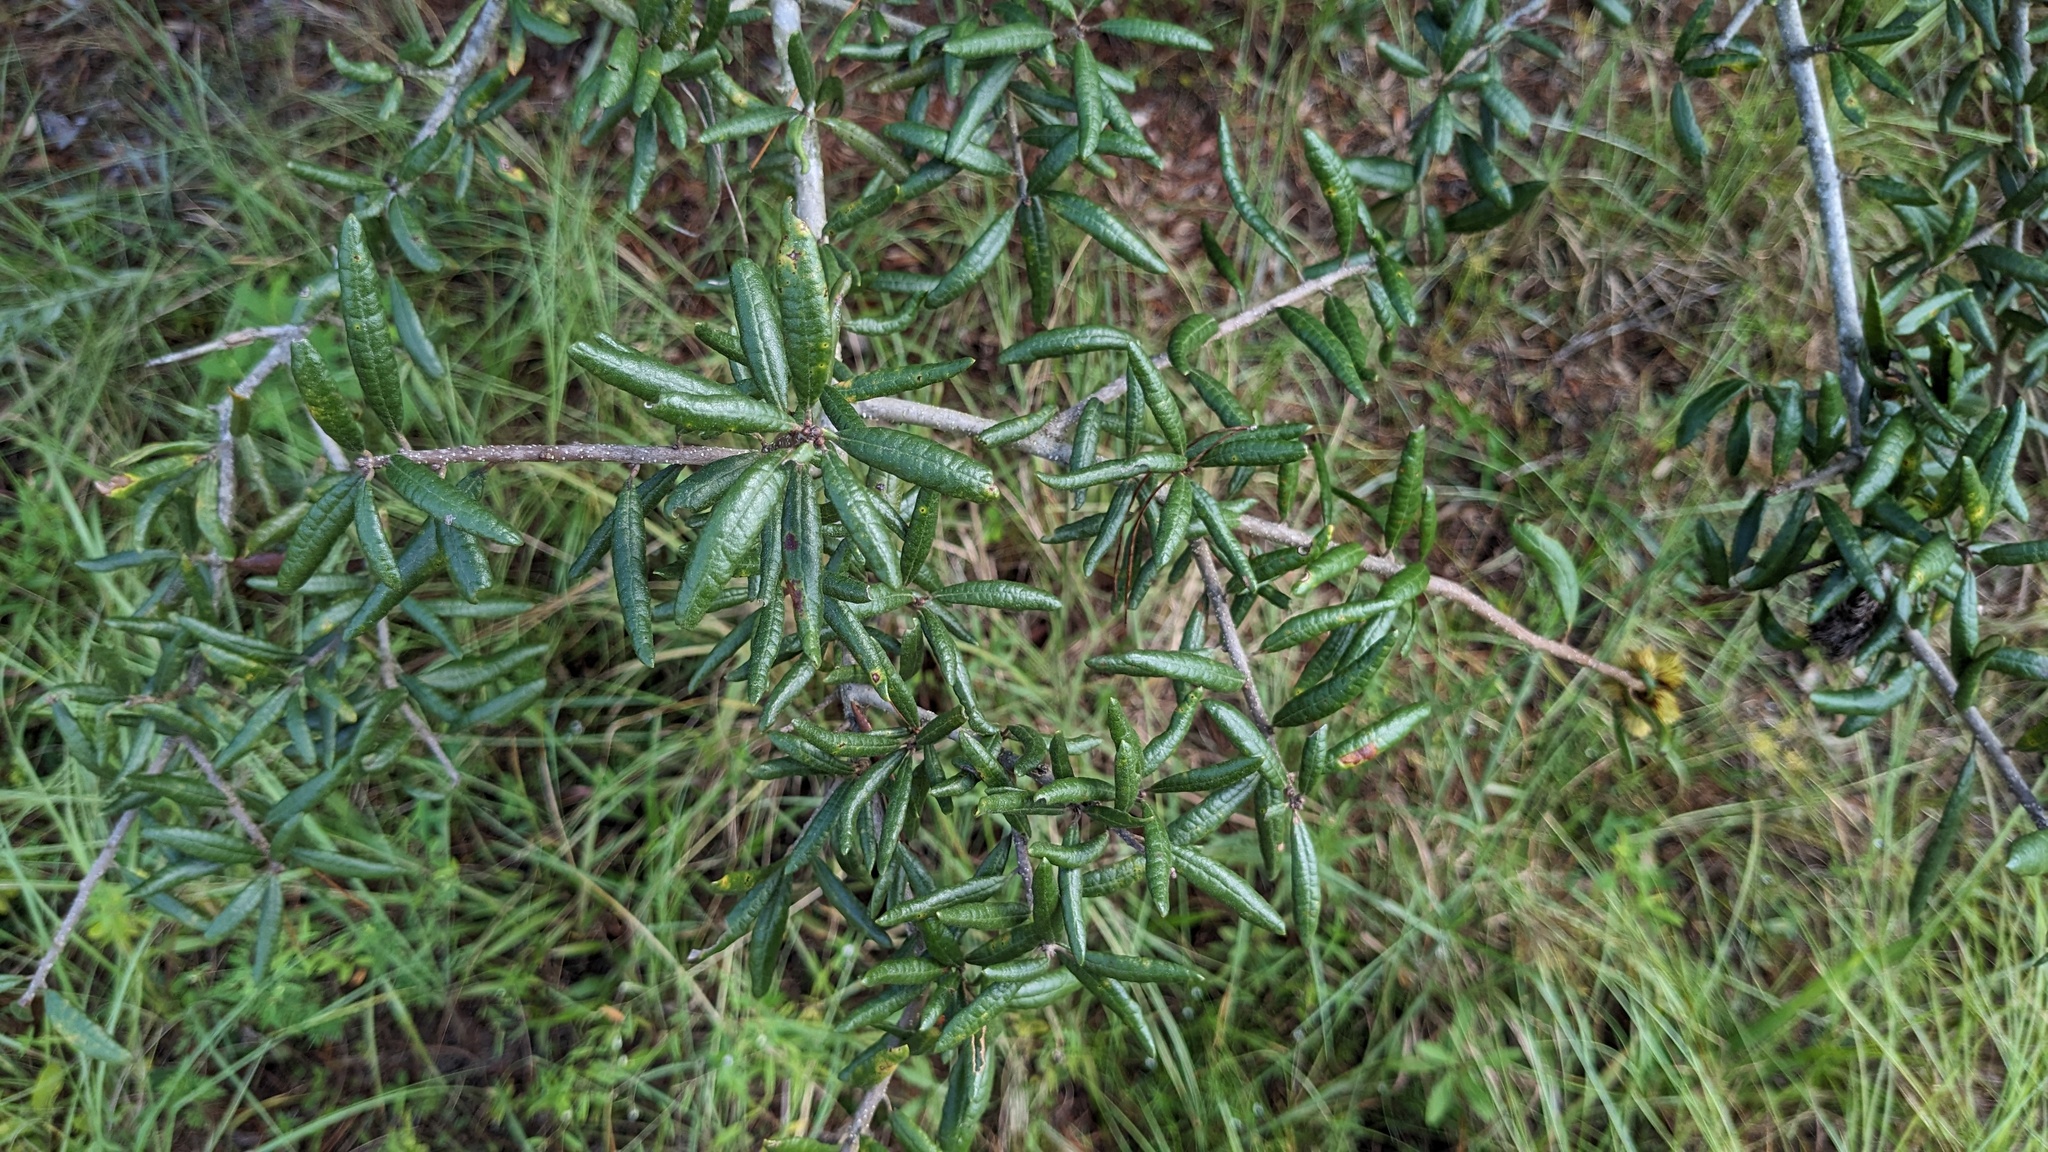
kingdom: Plantae
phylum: Tracheophyta
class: Magnoliopsida
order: Fagales
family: Fagaceae
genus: Quercus
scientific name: Quercus geminata
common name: Sand live oak
